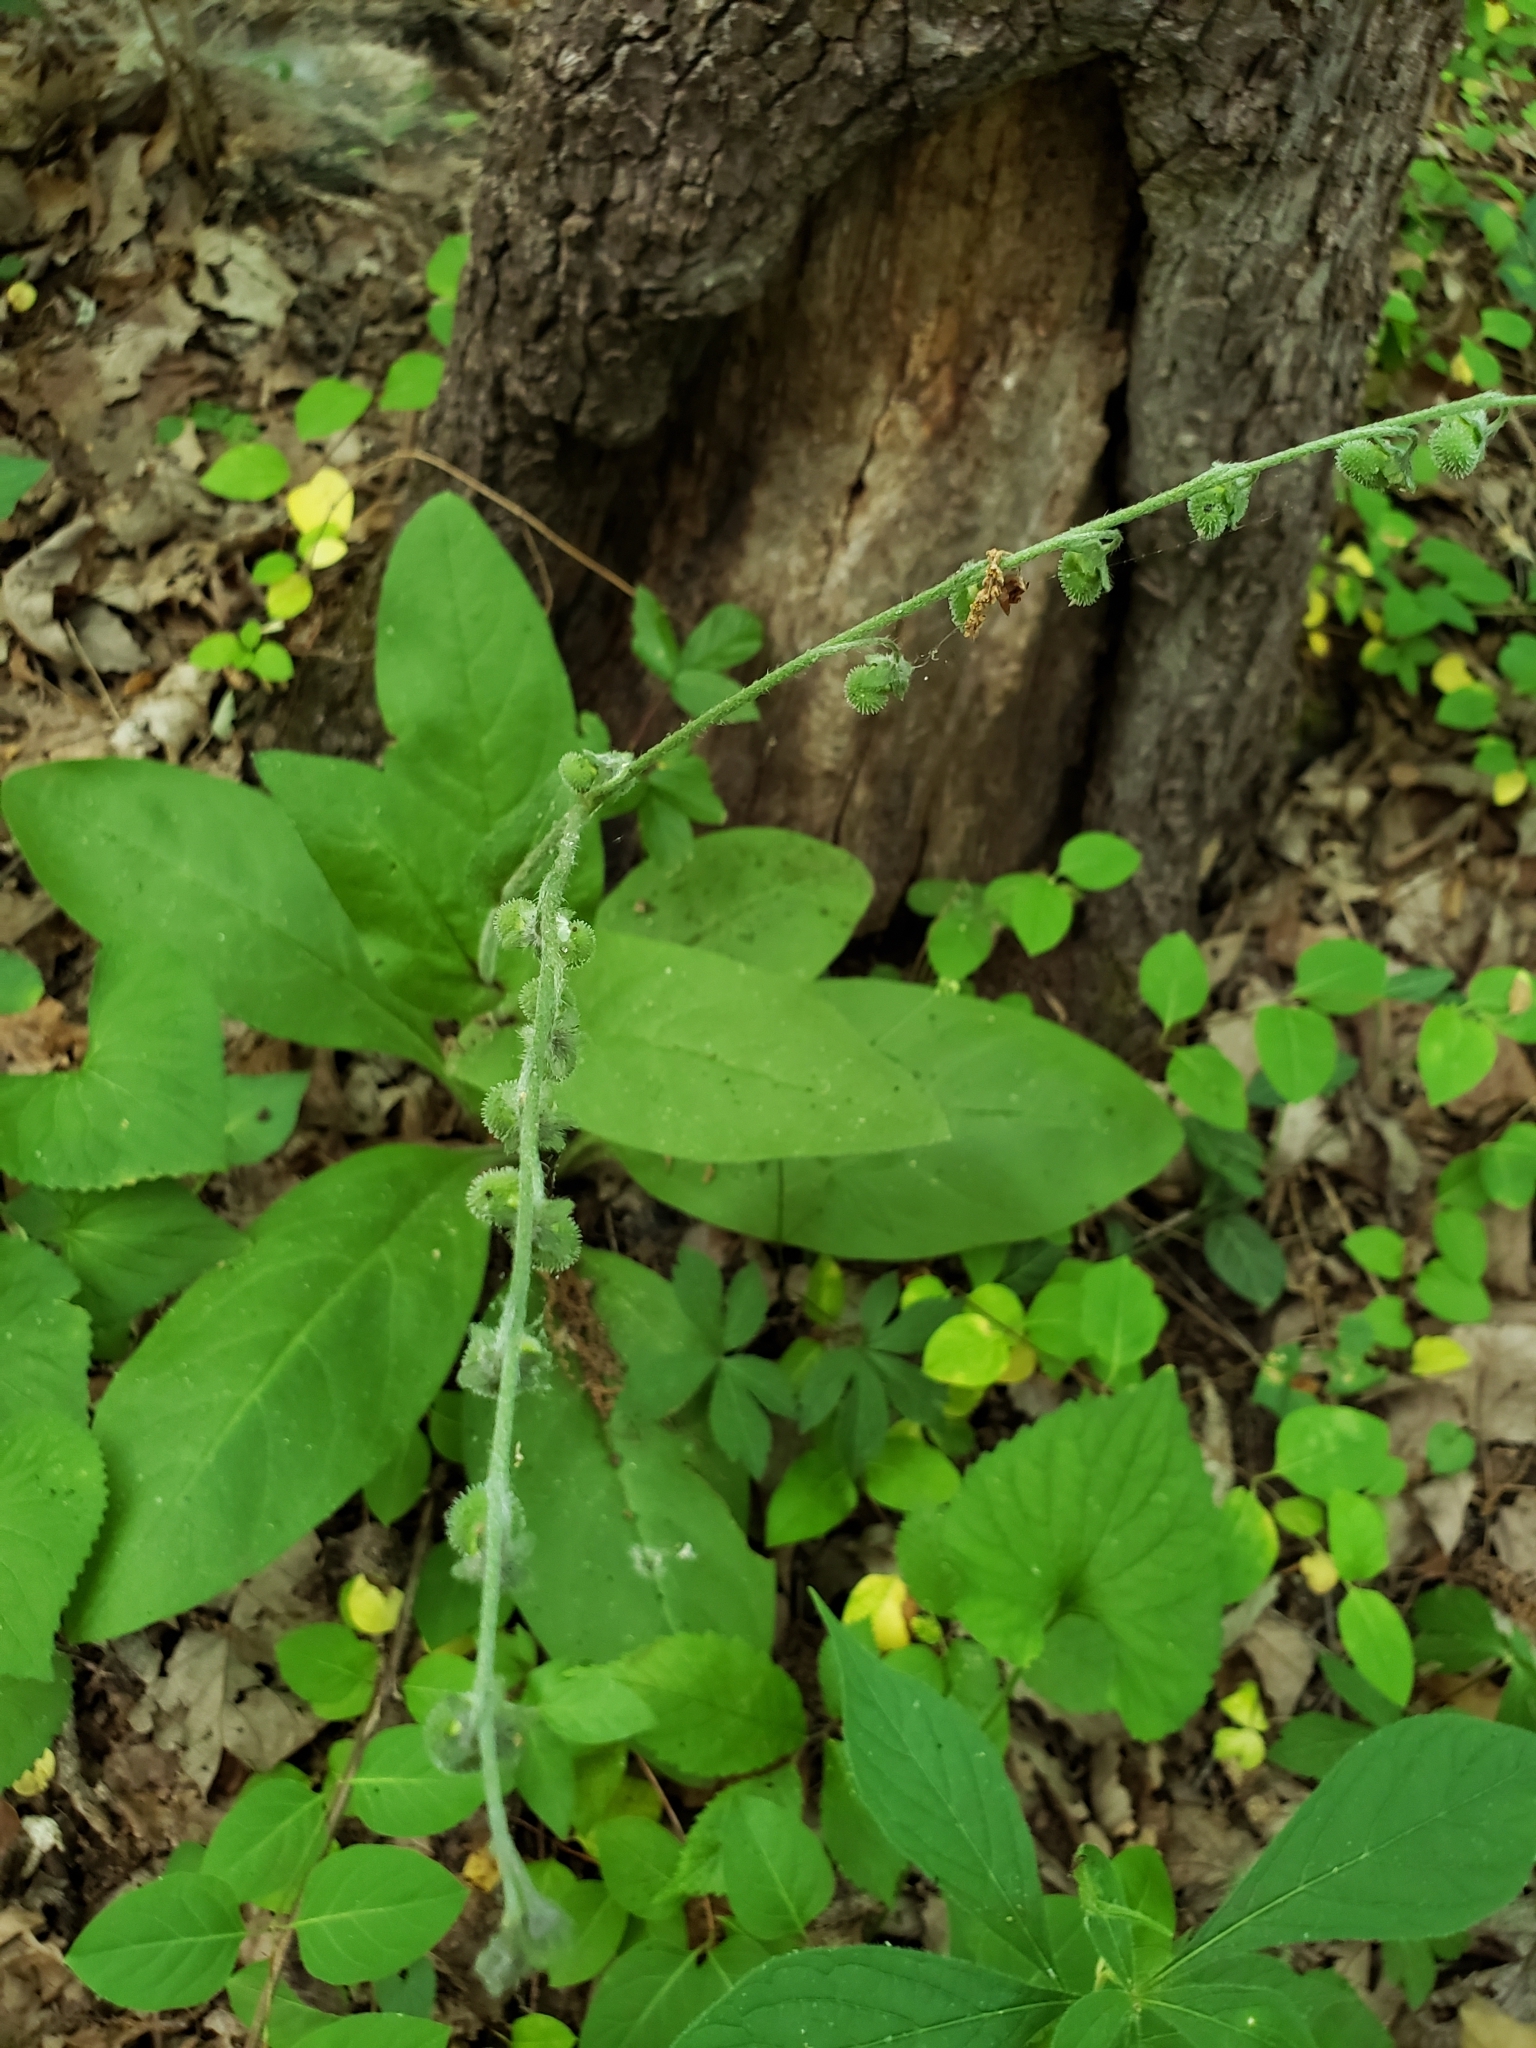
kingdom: Plantae
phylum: Tracheophyta
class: Magnoliopsida
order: Boraginales
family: Boraginaceae
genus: Andersonglossum
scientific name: Andersonglossum virginianum
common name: Wild comfrey
